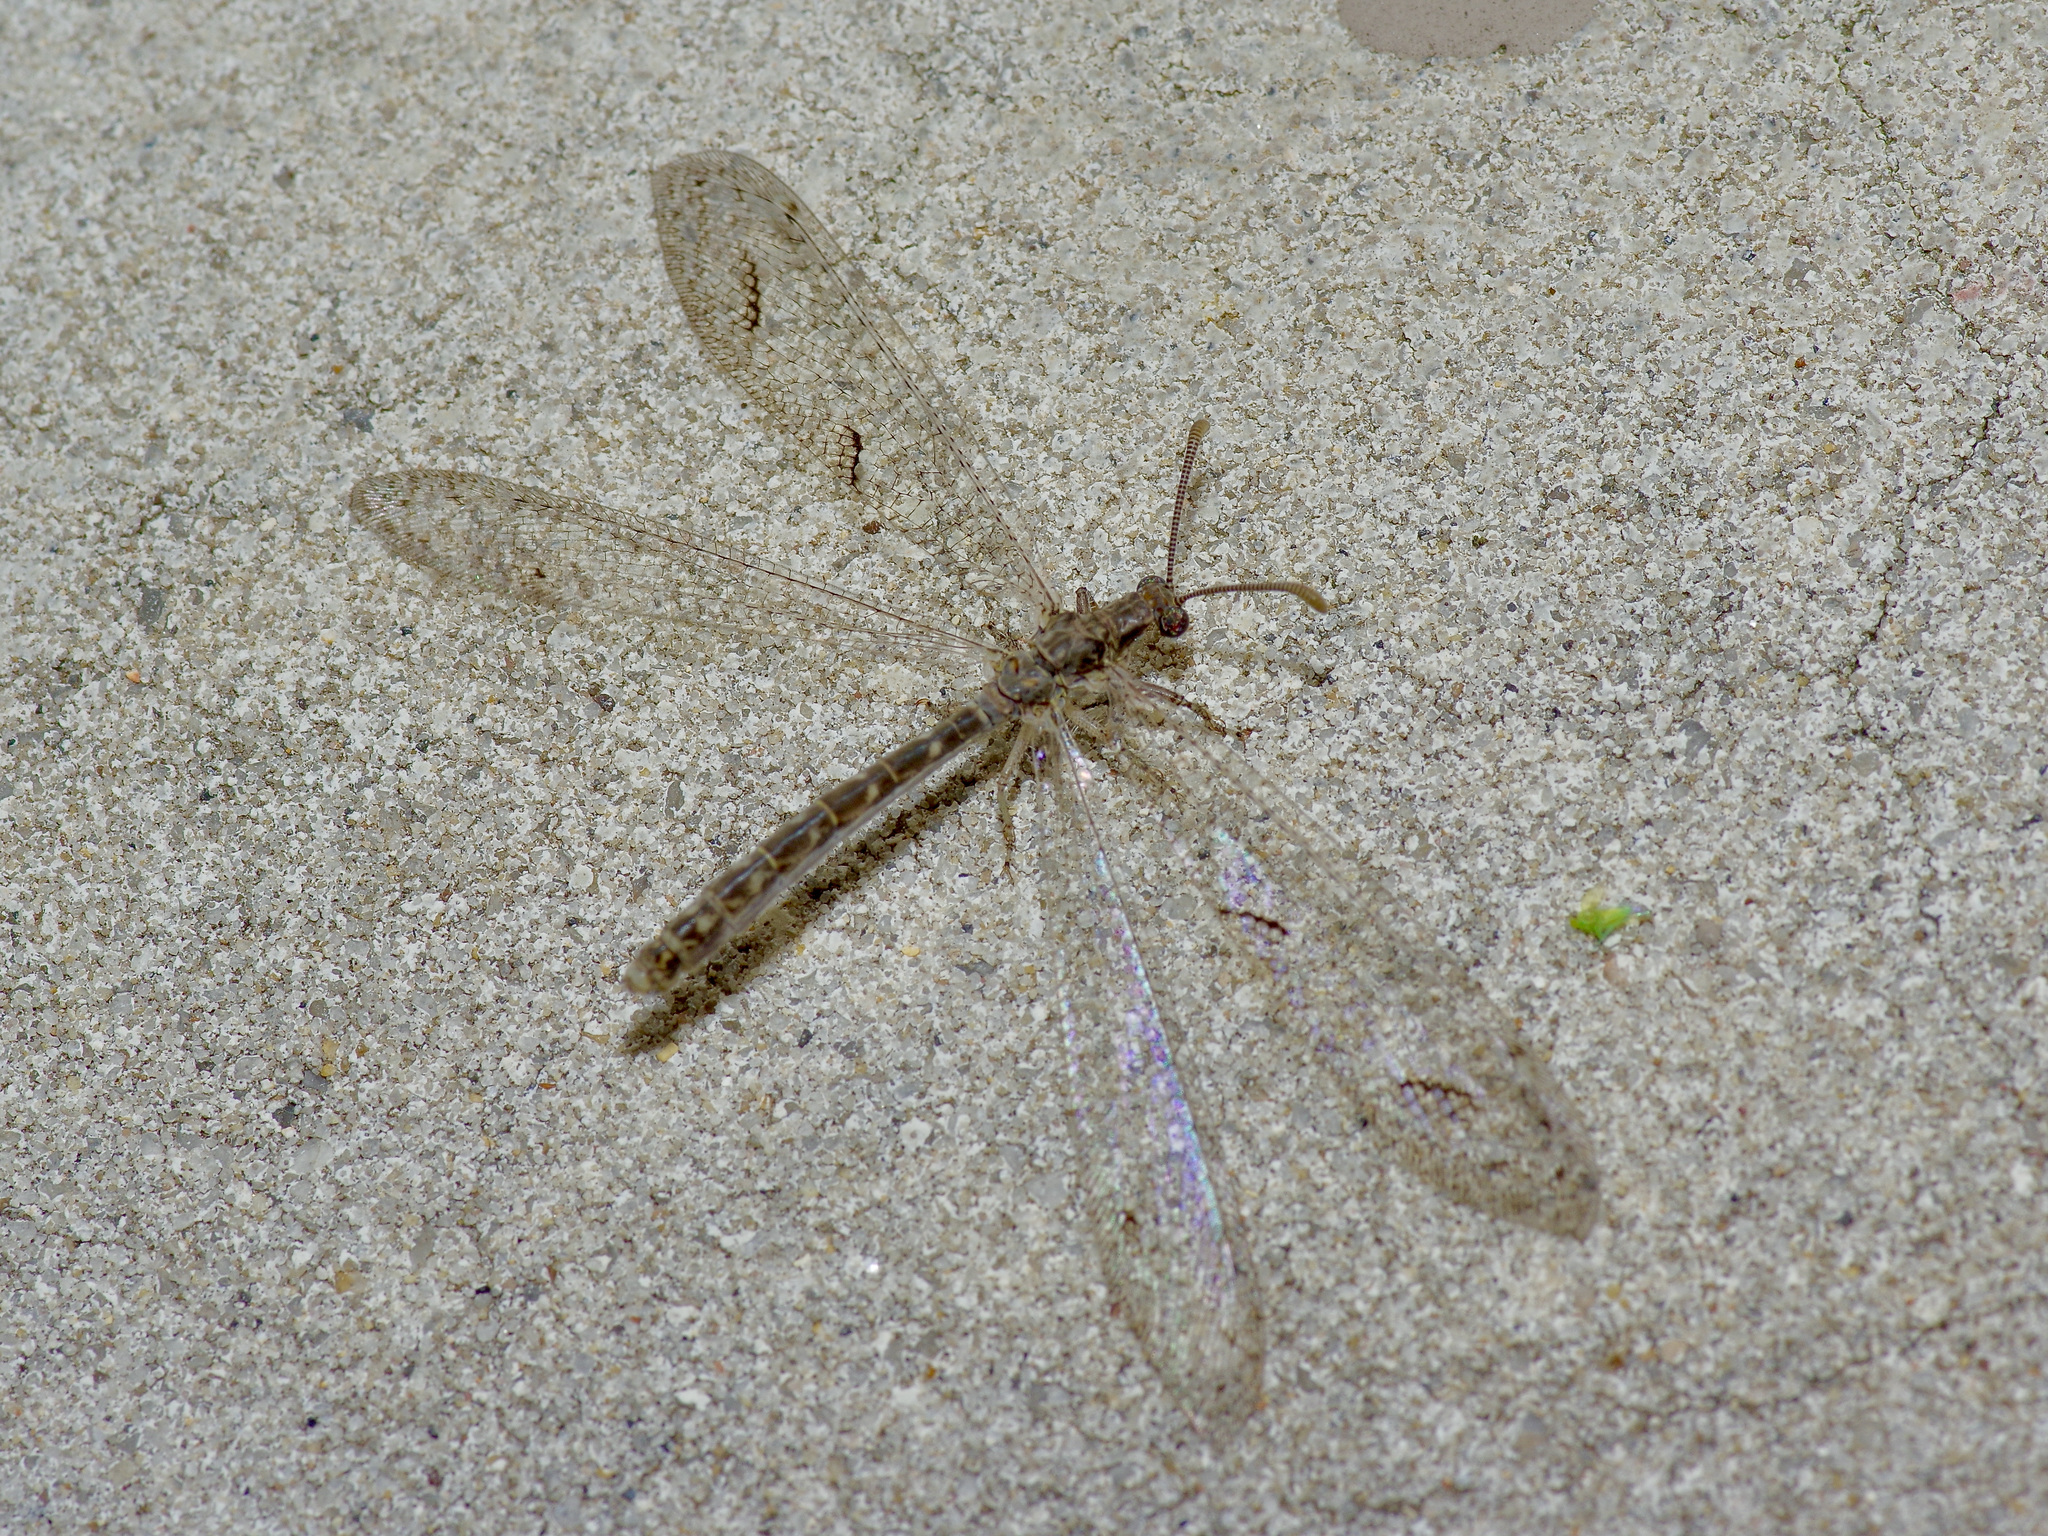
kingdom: Animalia
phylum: Arthropoda
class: Insecta
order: Neuroptera
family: Myrmeleontidae
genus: Euptilon
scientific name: Euptilon ornatum
